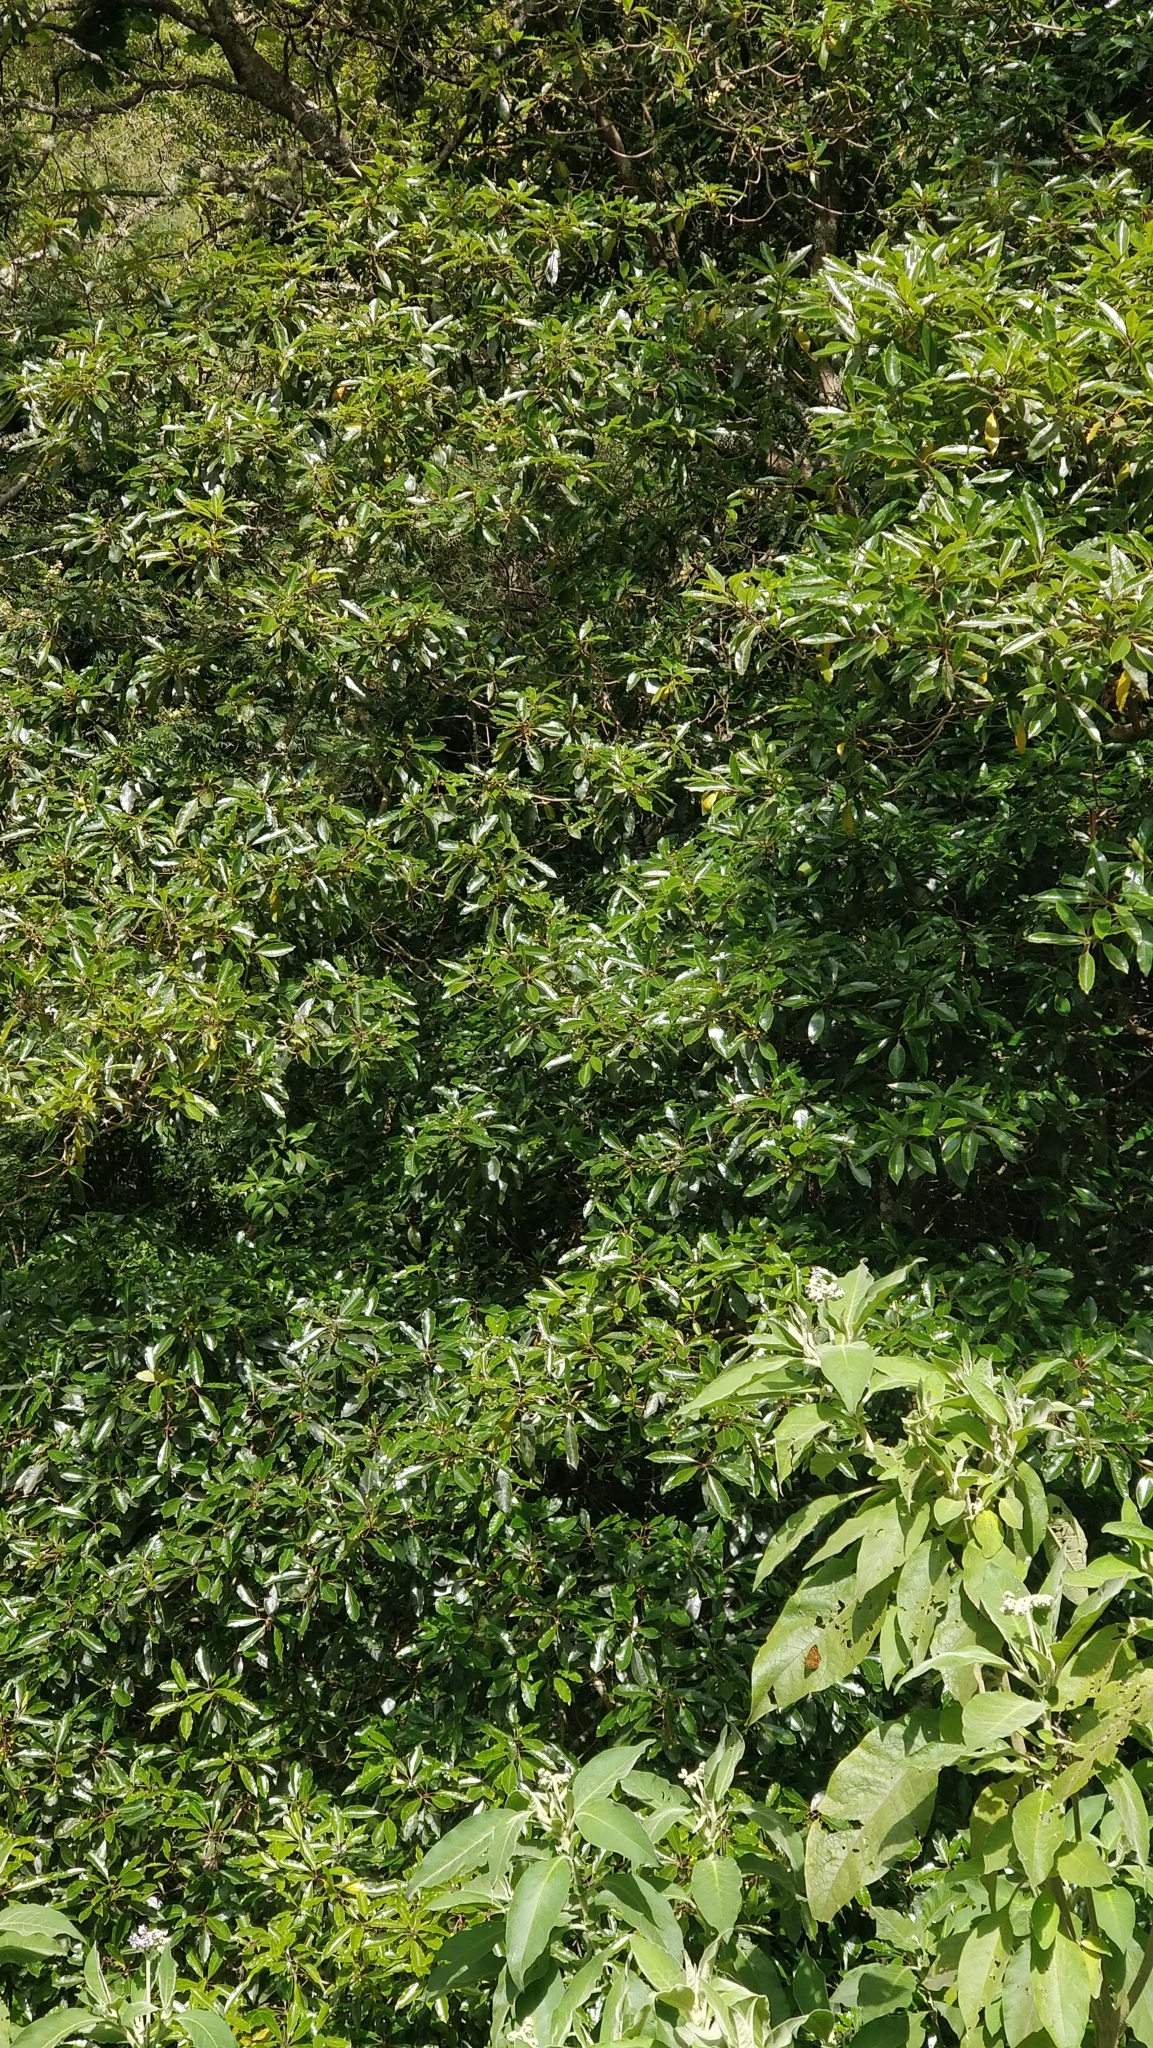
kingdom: Plantae
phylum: Tracheophyta
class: Magnoliopsida
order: Apiales
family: Pittosporaceae
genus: Pittosporum
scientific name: Pittosporum undulatum
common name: Australian cheesewood
